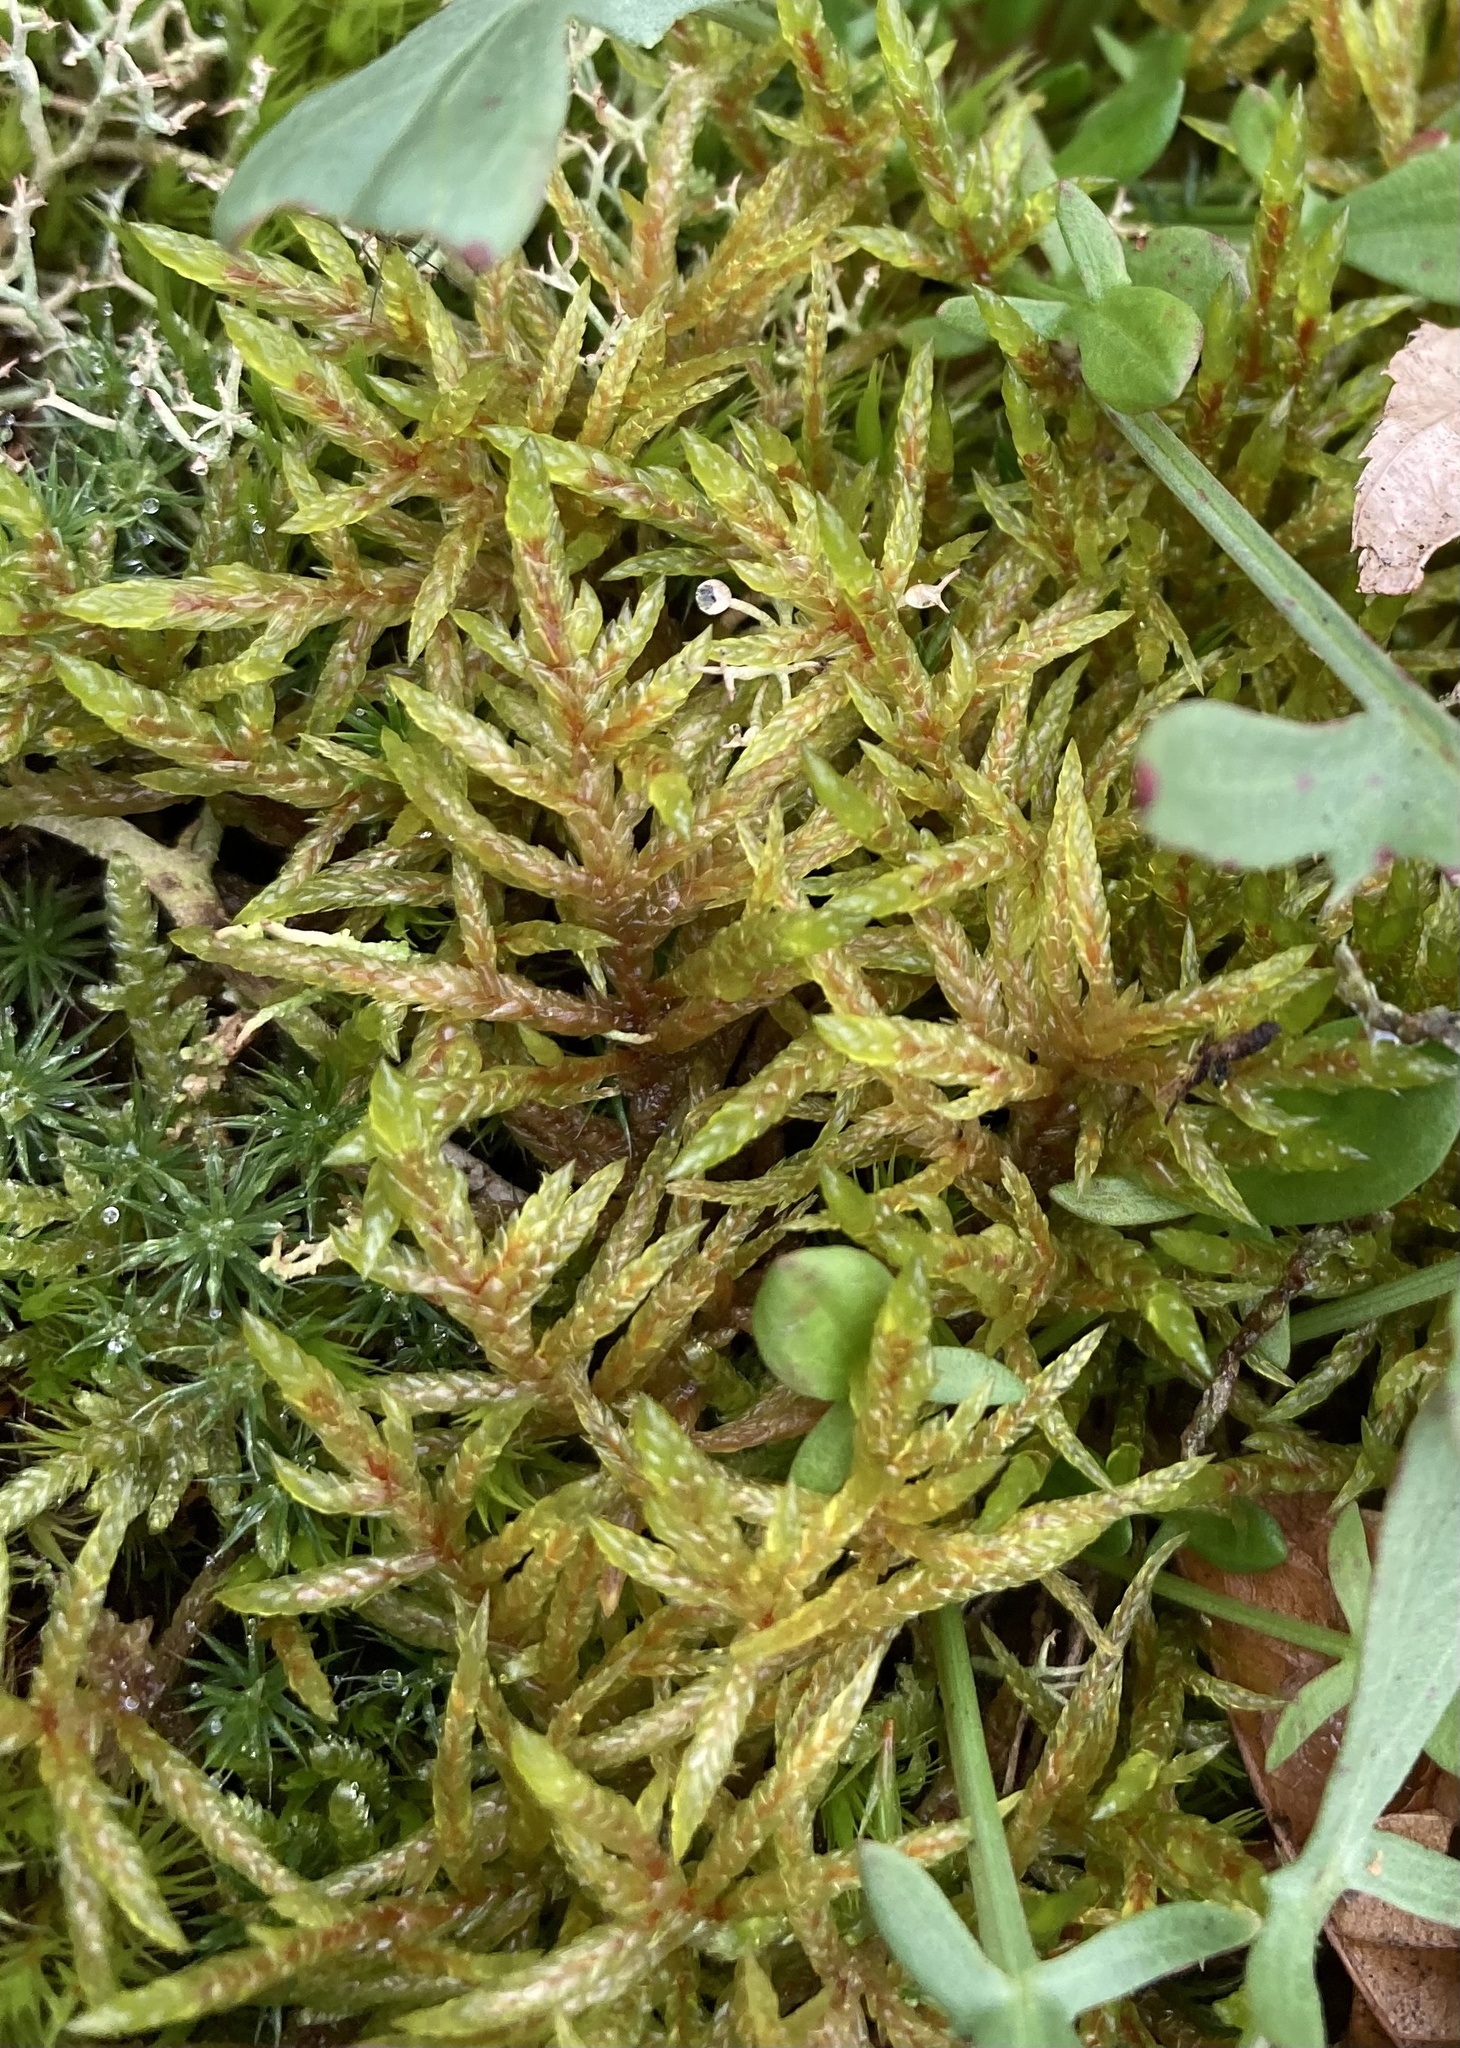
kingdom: Plantae
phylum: Bryophyta
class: Bryopsida
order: Hypnales
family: Hylocomiaceae
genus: Pleurozium
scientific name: Pleurozium schreberi
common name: Red-stemmed feather moss
